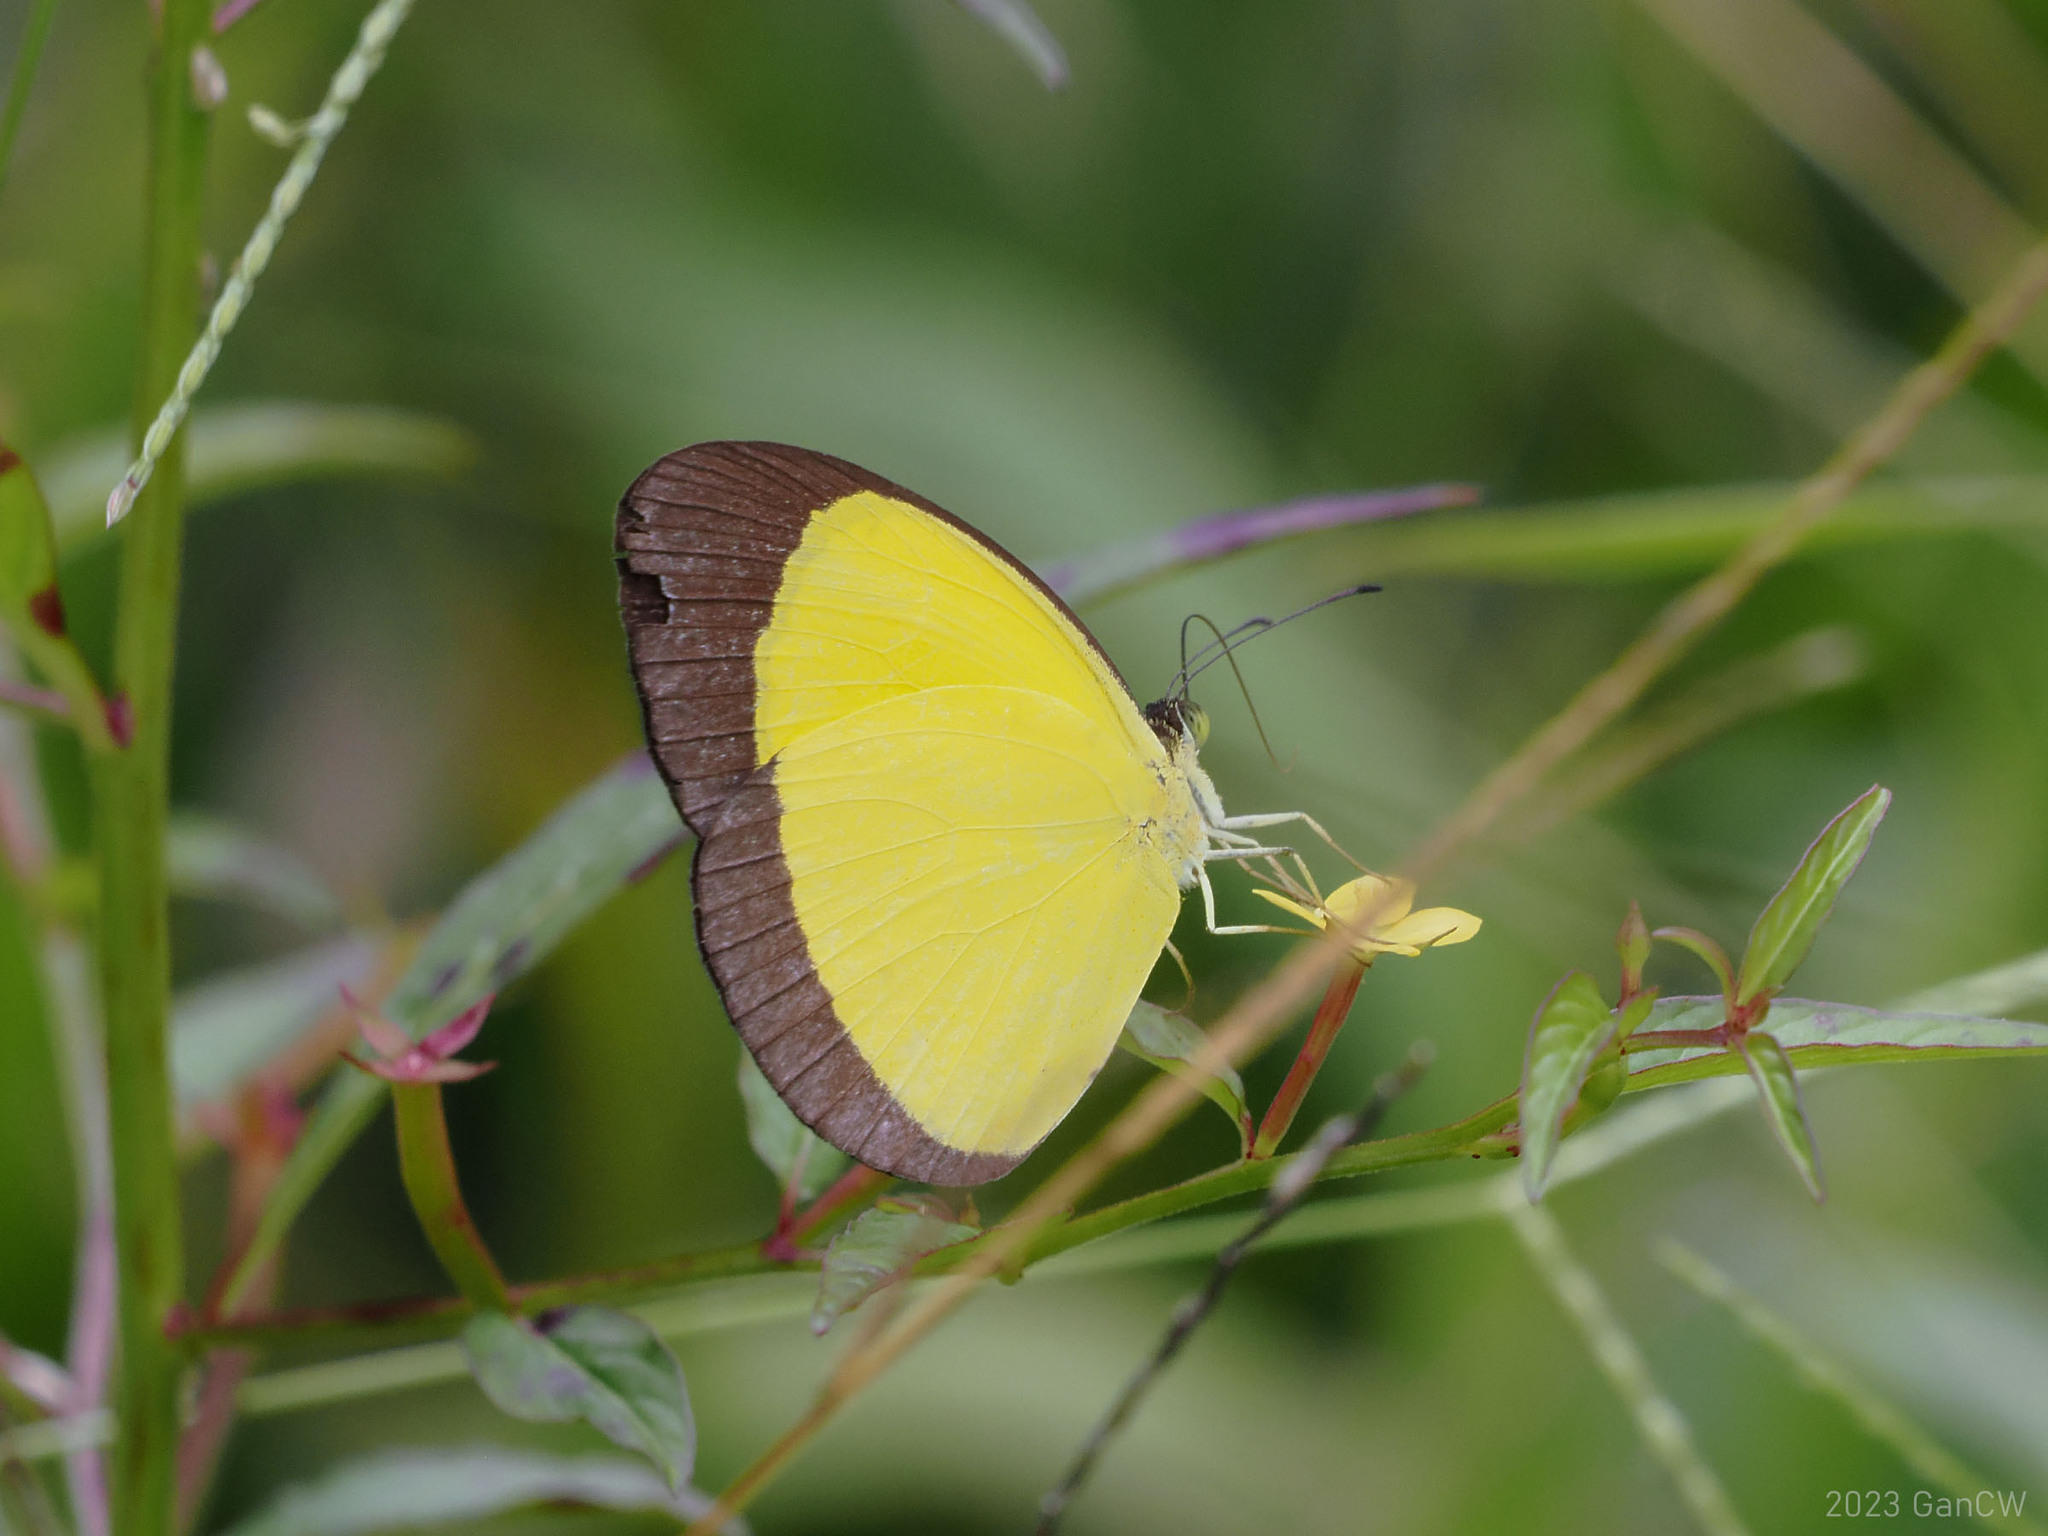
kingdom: Animalia
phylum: Arthropoda
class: Insecta
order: Lepidoptera
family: Pieridae
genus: Eurema
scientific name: Eurema puella
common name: Broad margined grass yellow
